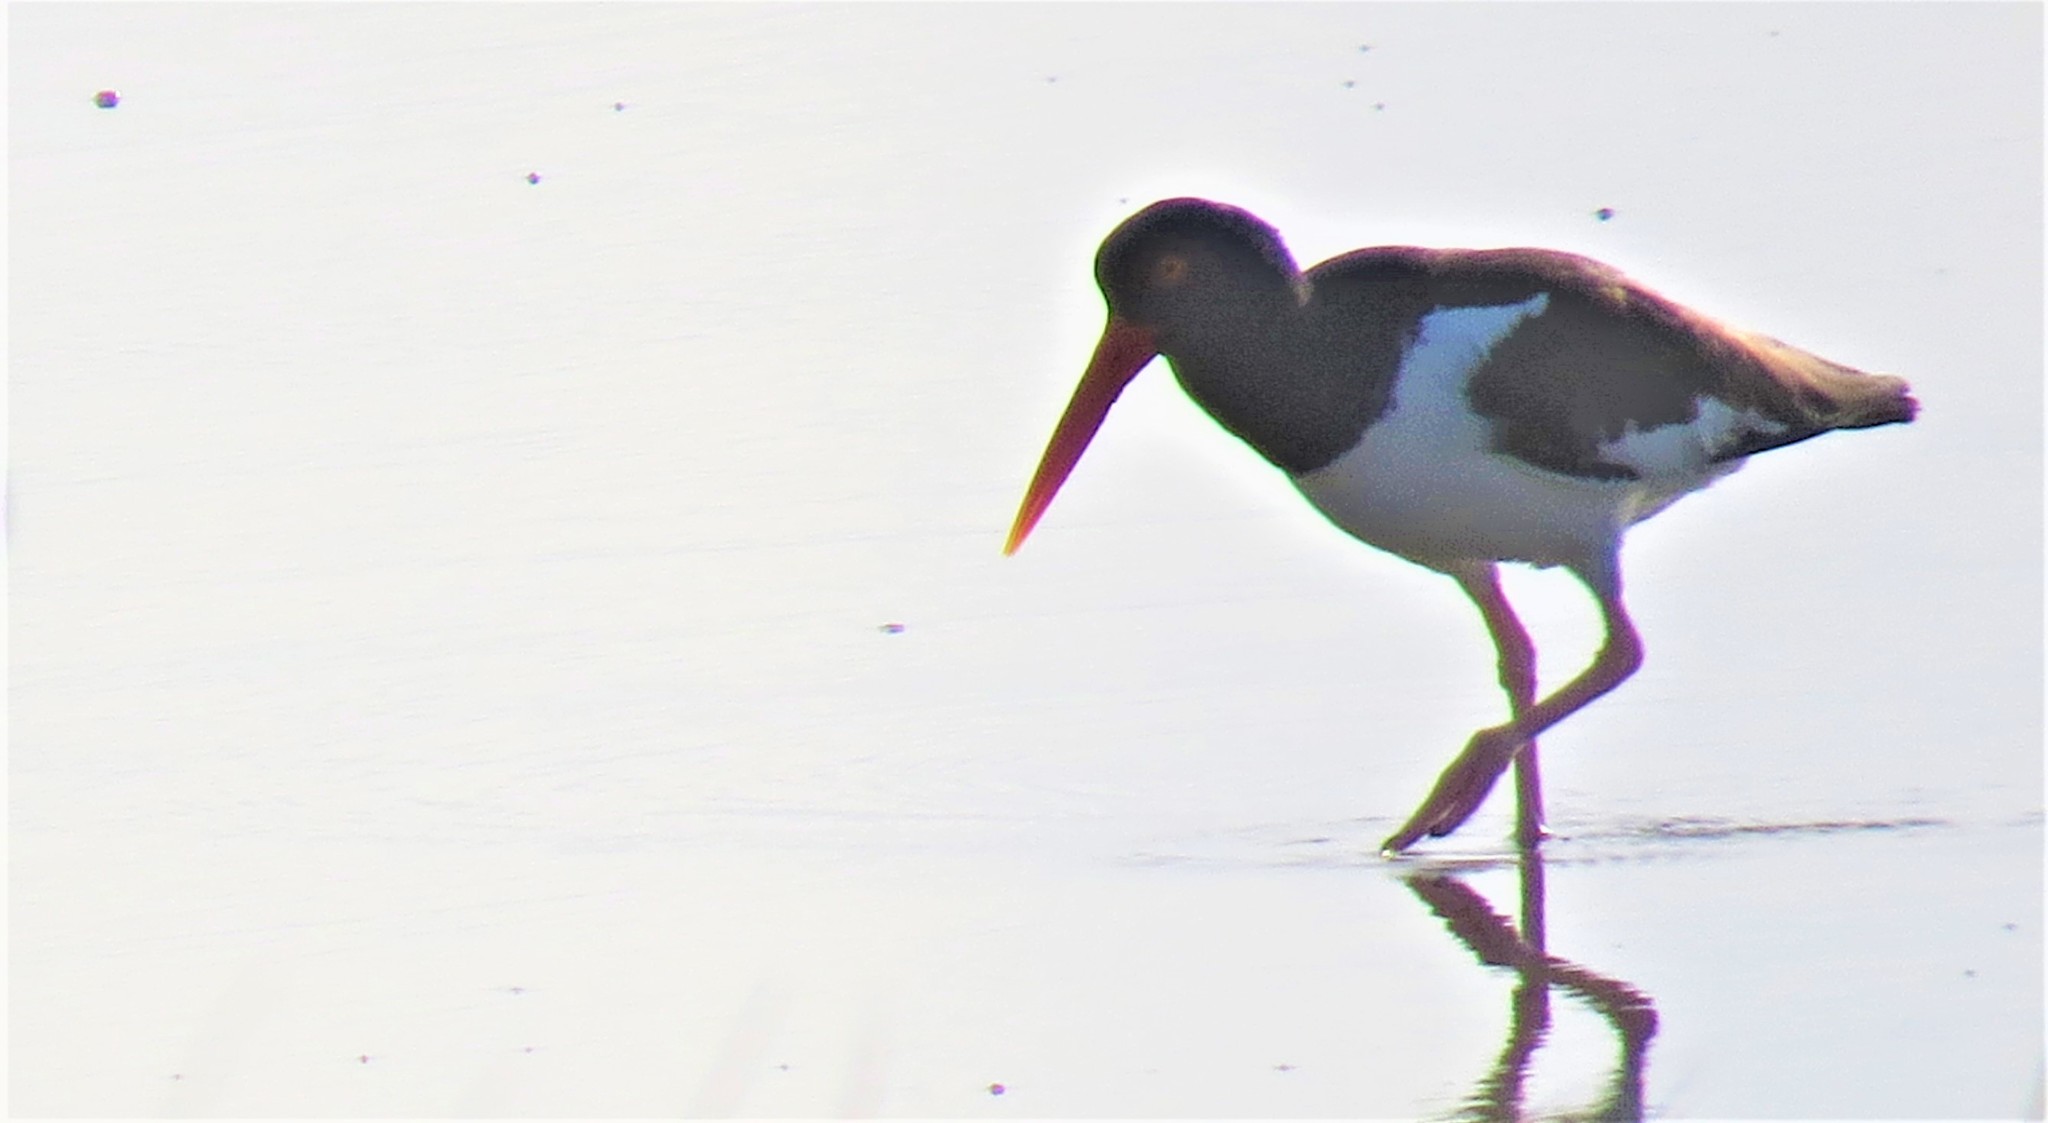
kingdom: Animalia
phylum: Chordata
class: Aves
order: Charadriiformes
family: Haematopodidae
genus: Haematopus
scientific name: Haematopus palliatus
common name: American oystercatcher
